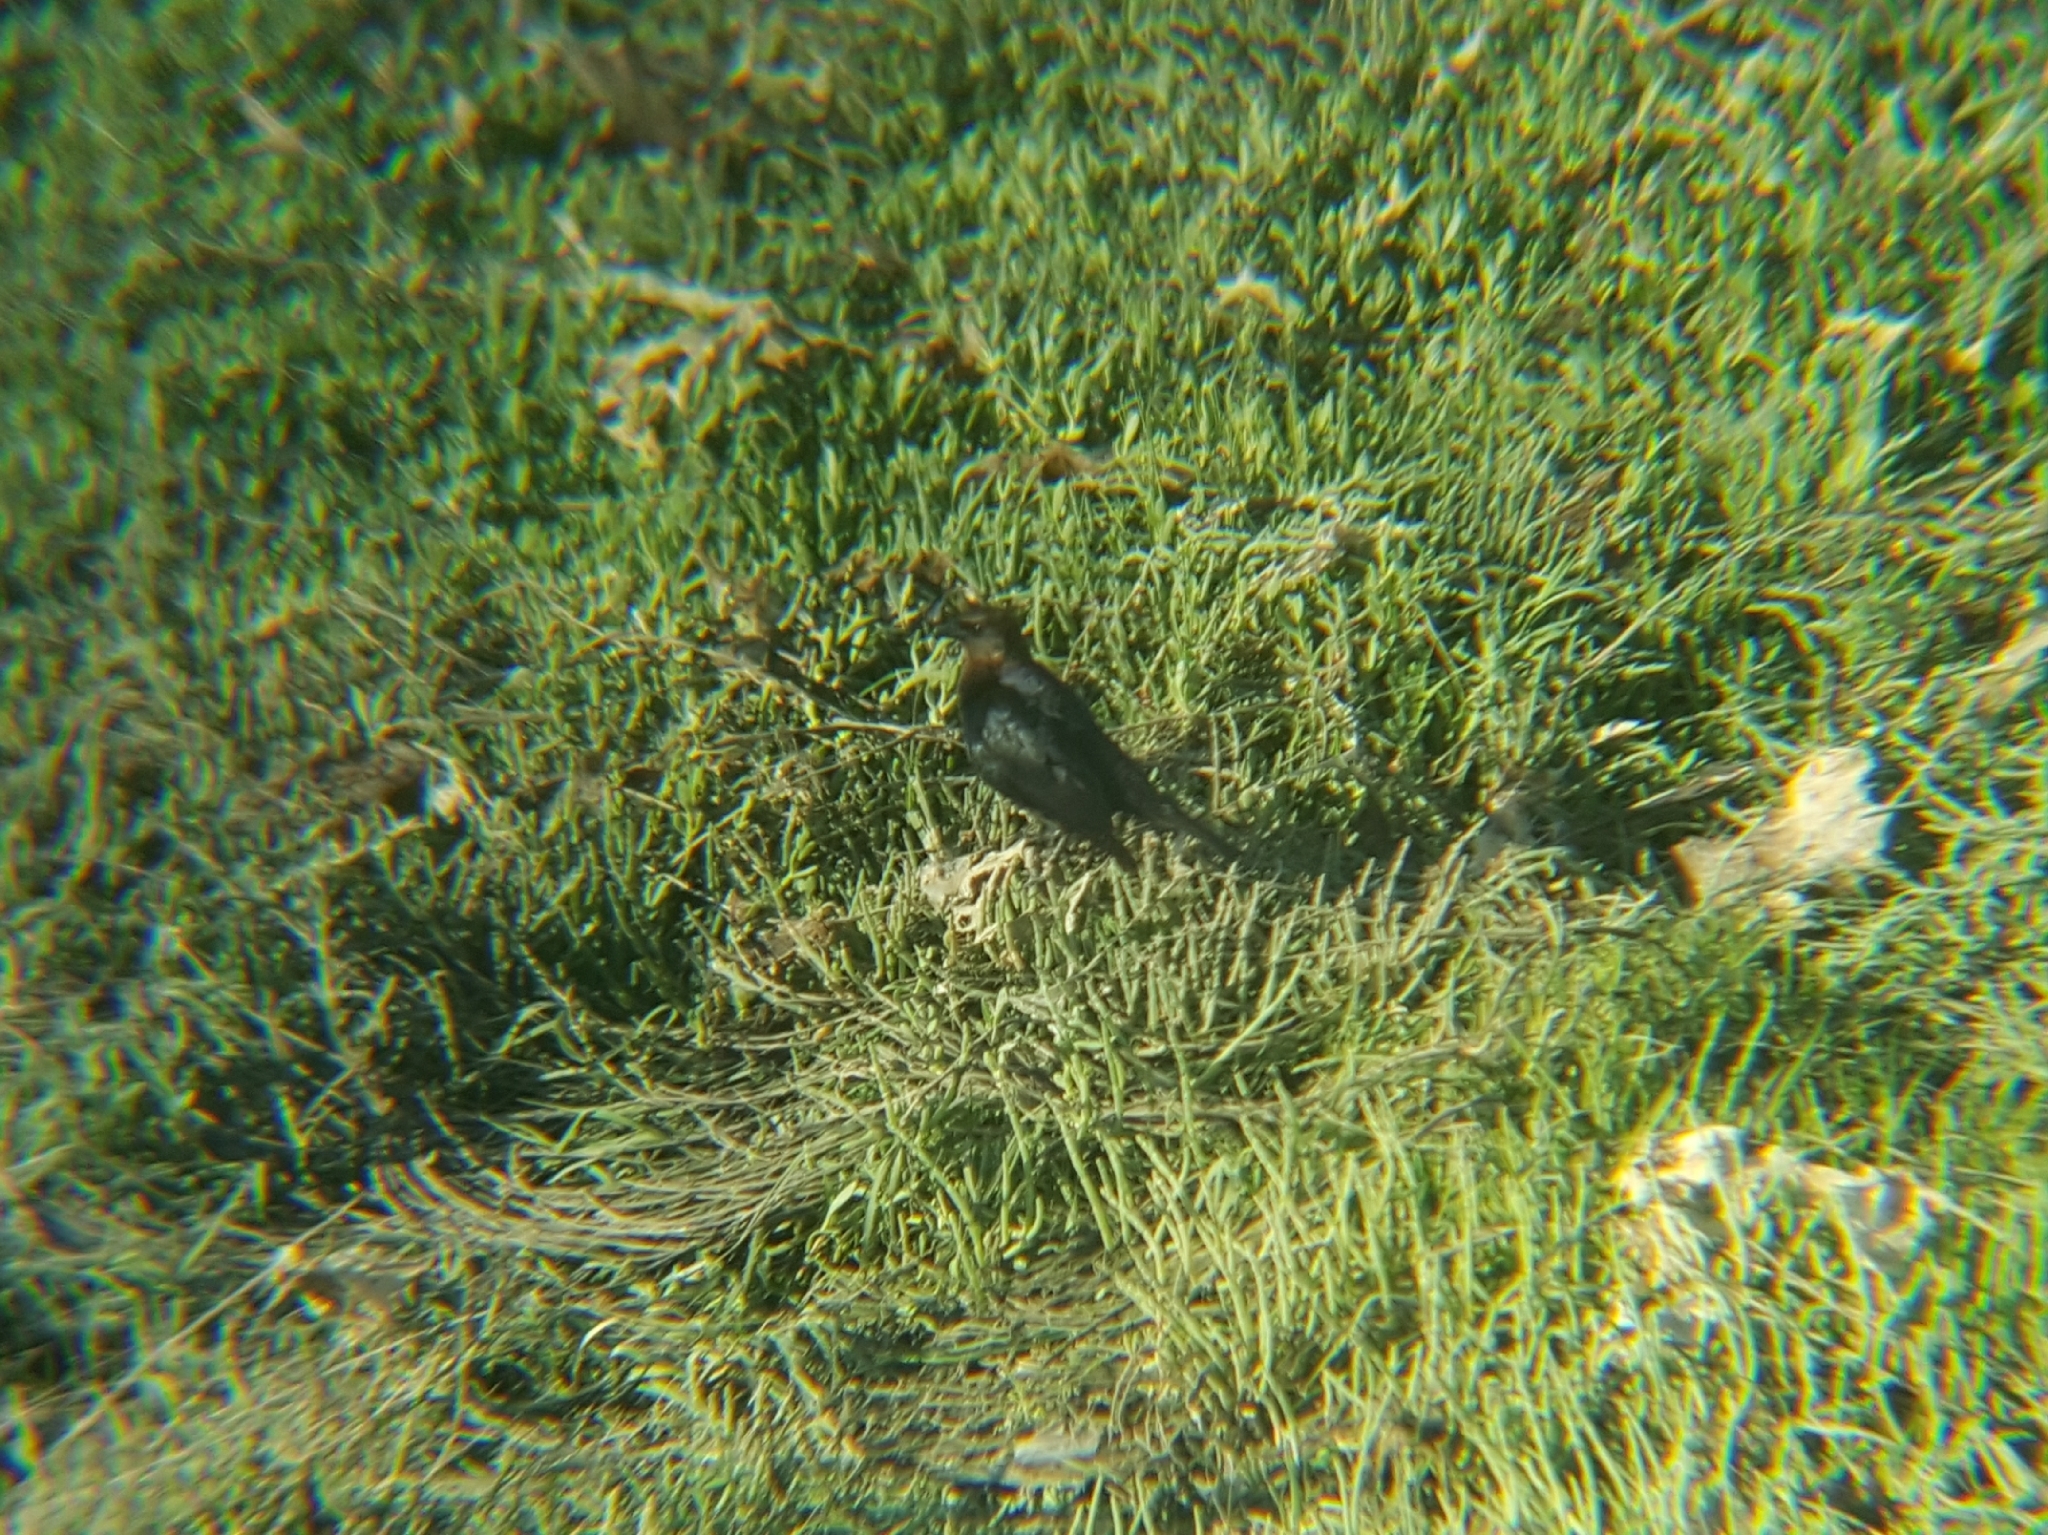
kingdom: Animalia
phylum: Chordata
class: Aves
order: Passeriformes
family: Icteridae
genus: Molothrus
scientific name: Molothrus ater
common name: Brown-headed cowbird
